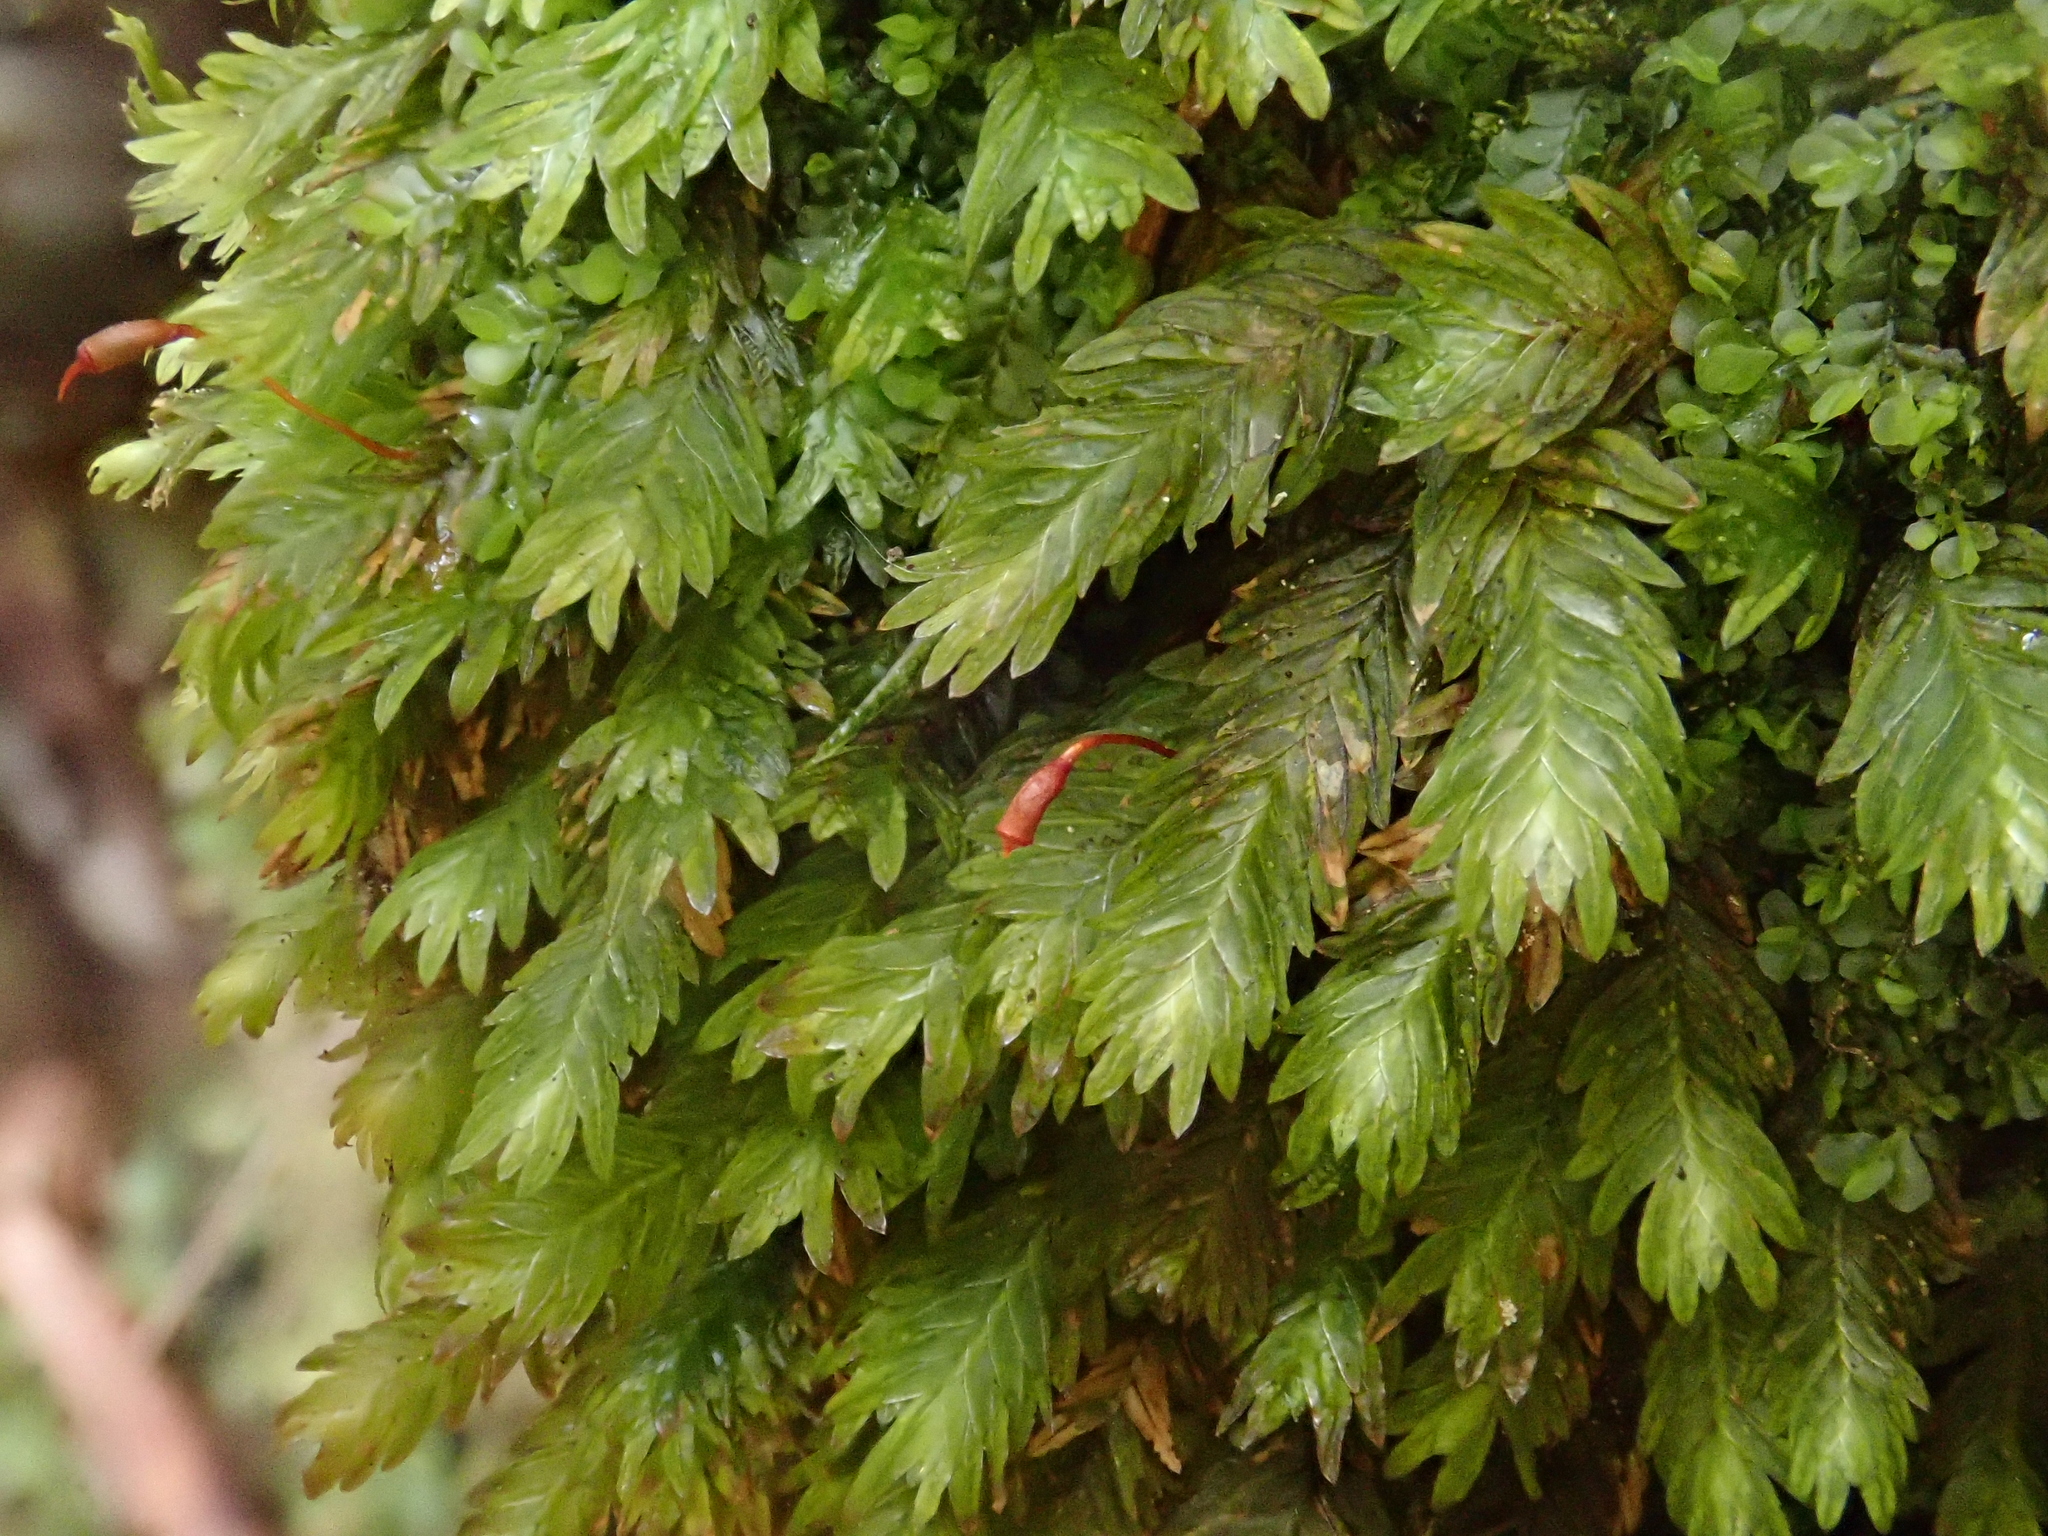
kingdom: Plantae
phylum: Bryophyta
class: Bryopsida
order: Dicranales
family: Fissidentaceae
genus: Fissidens
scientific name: Fissidens dubius
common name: Rock pocket moss
